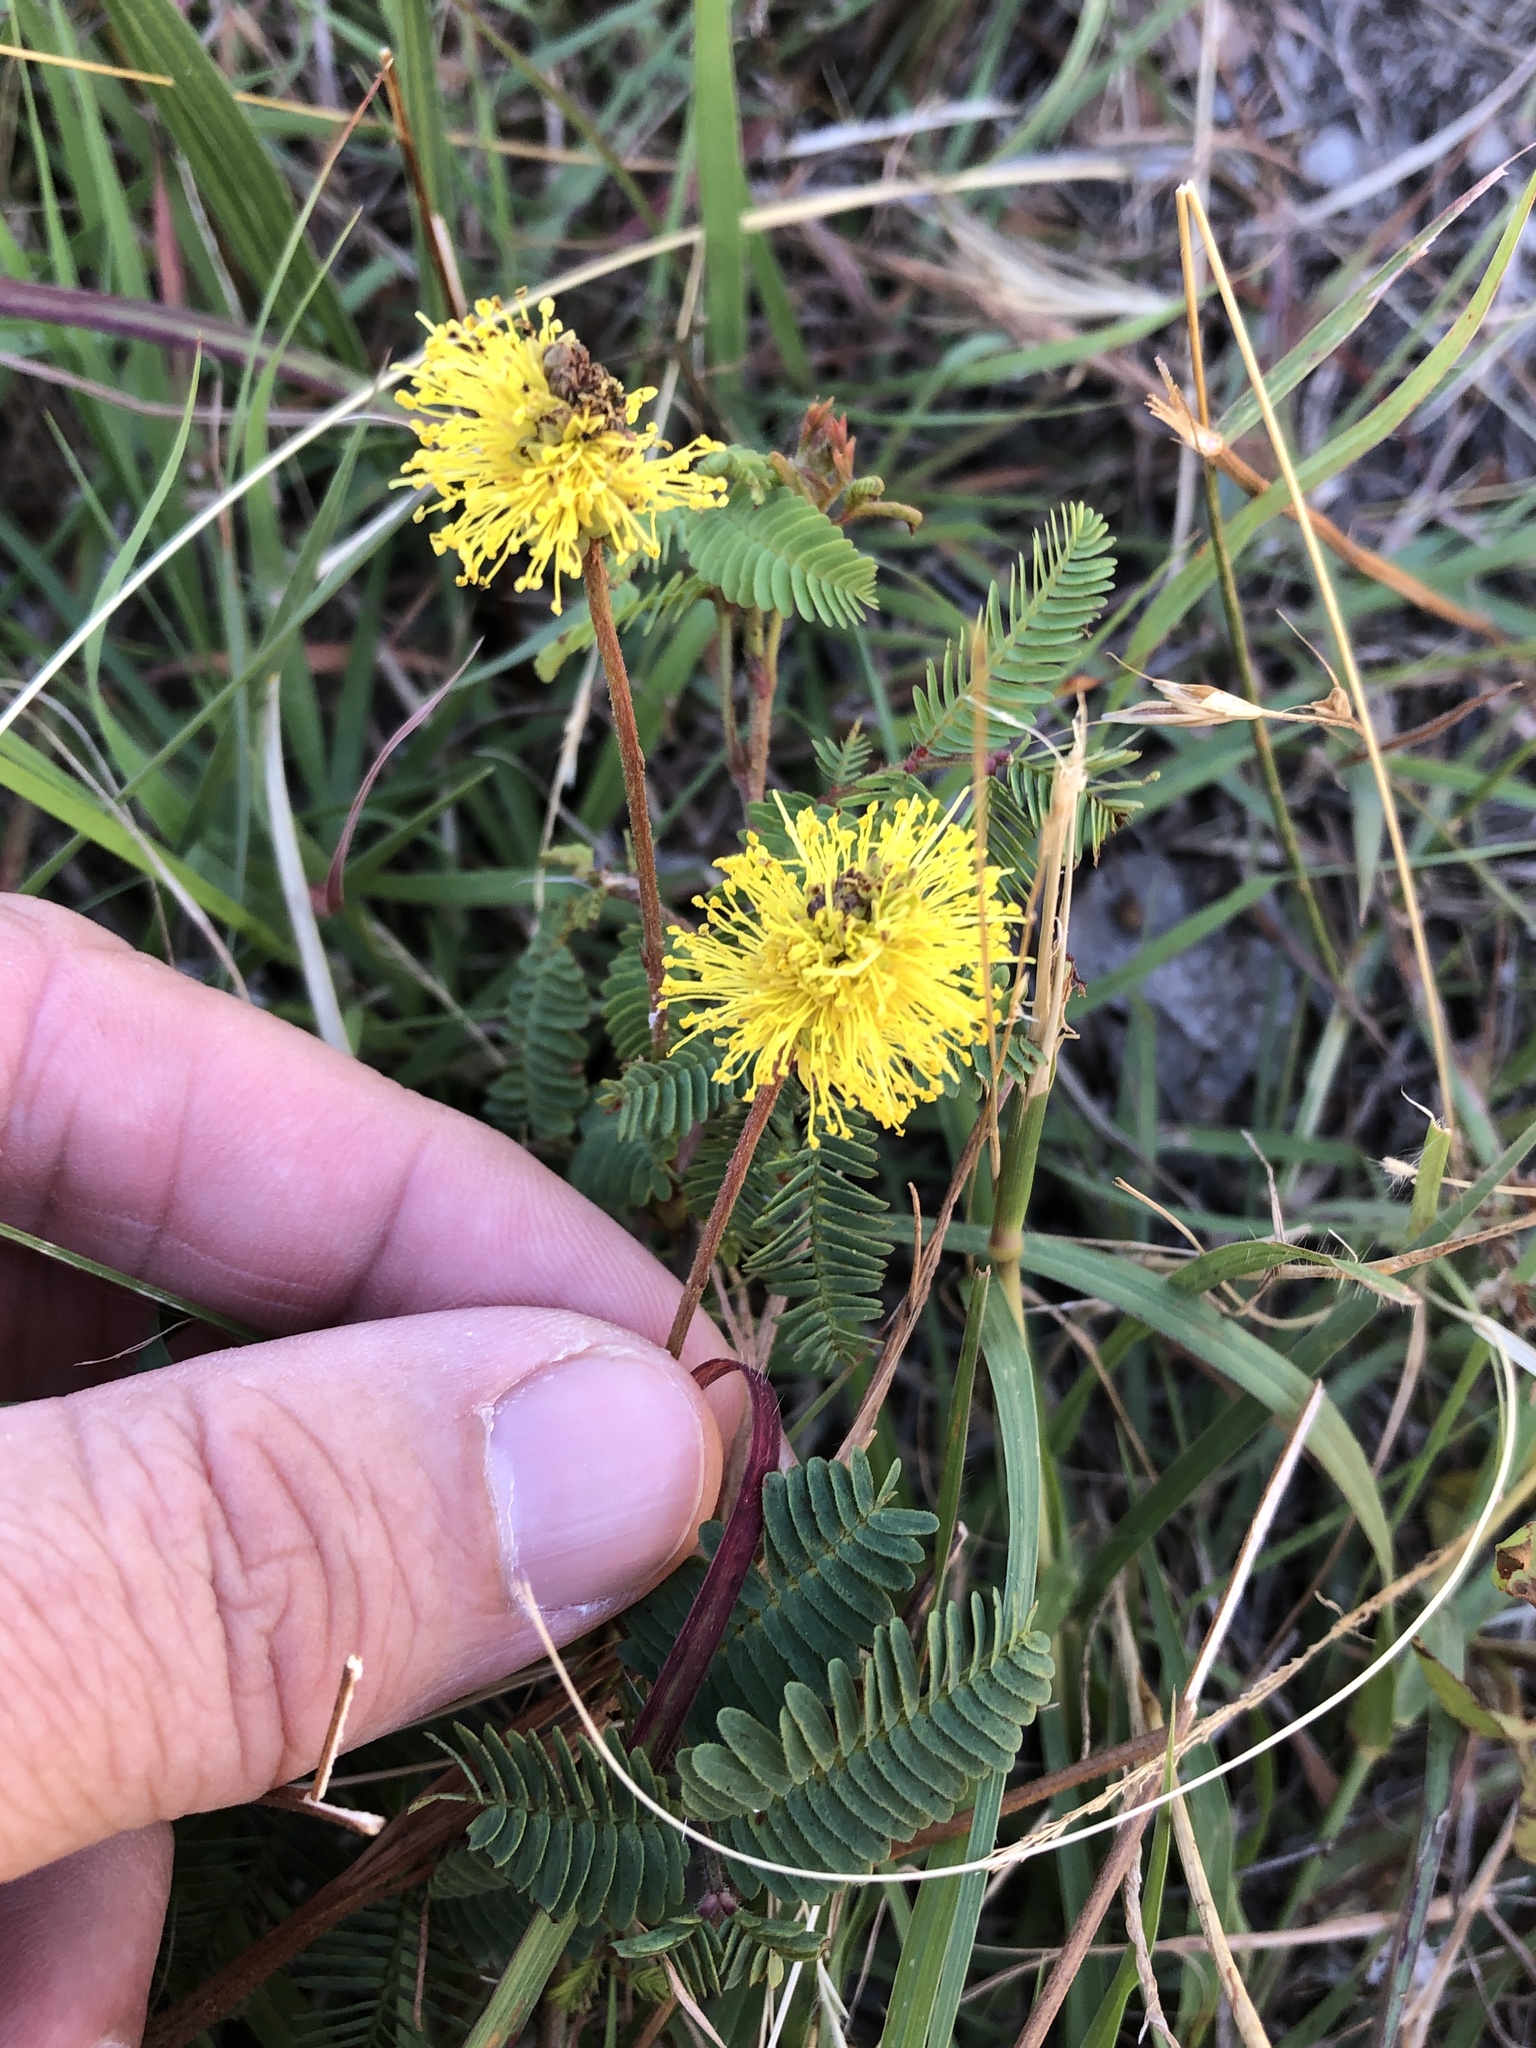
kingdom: Plantae
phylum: Tracheophyta
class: Magnoliopsida
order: Fabales
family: Fabaceae
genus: Neptunia
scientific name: Neptunia lutea
